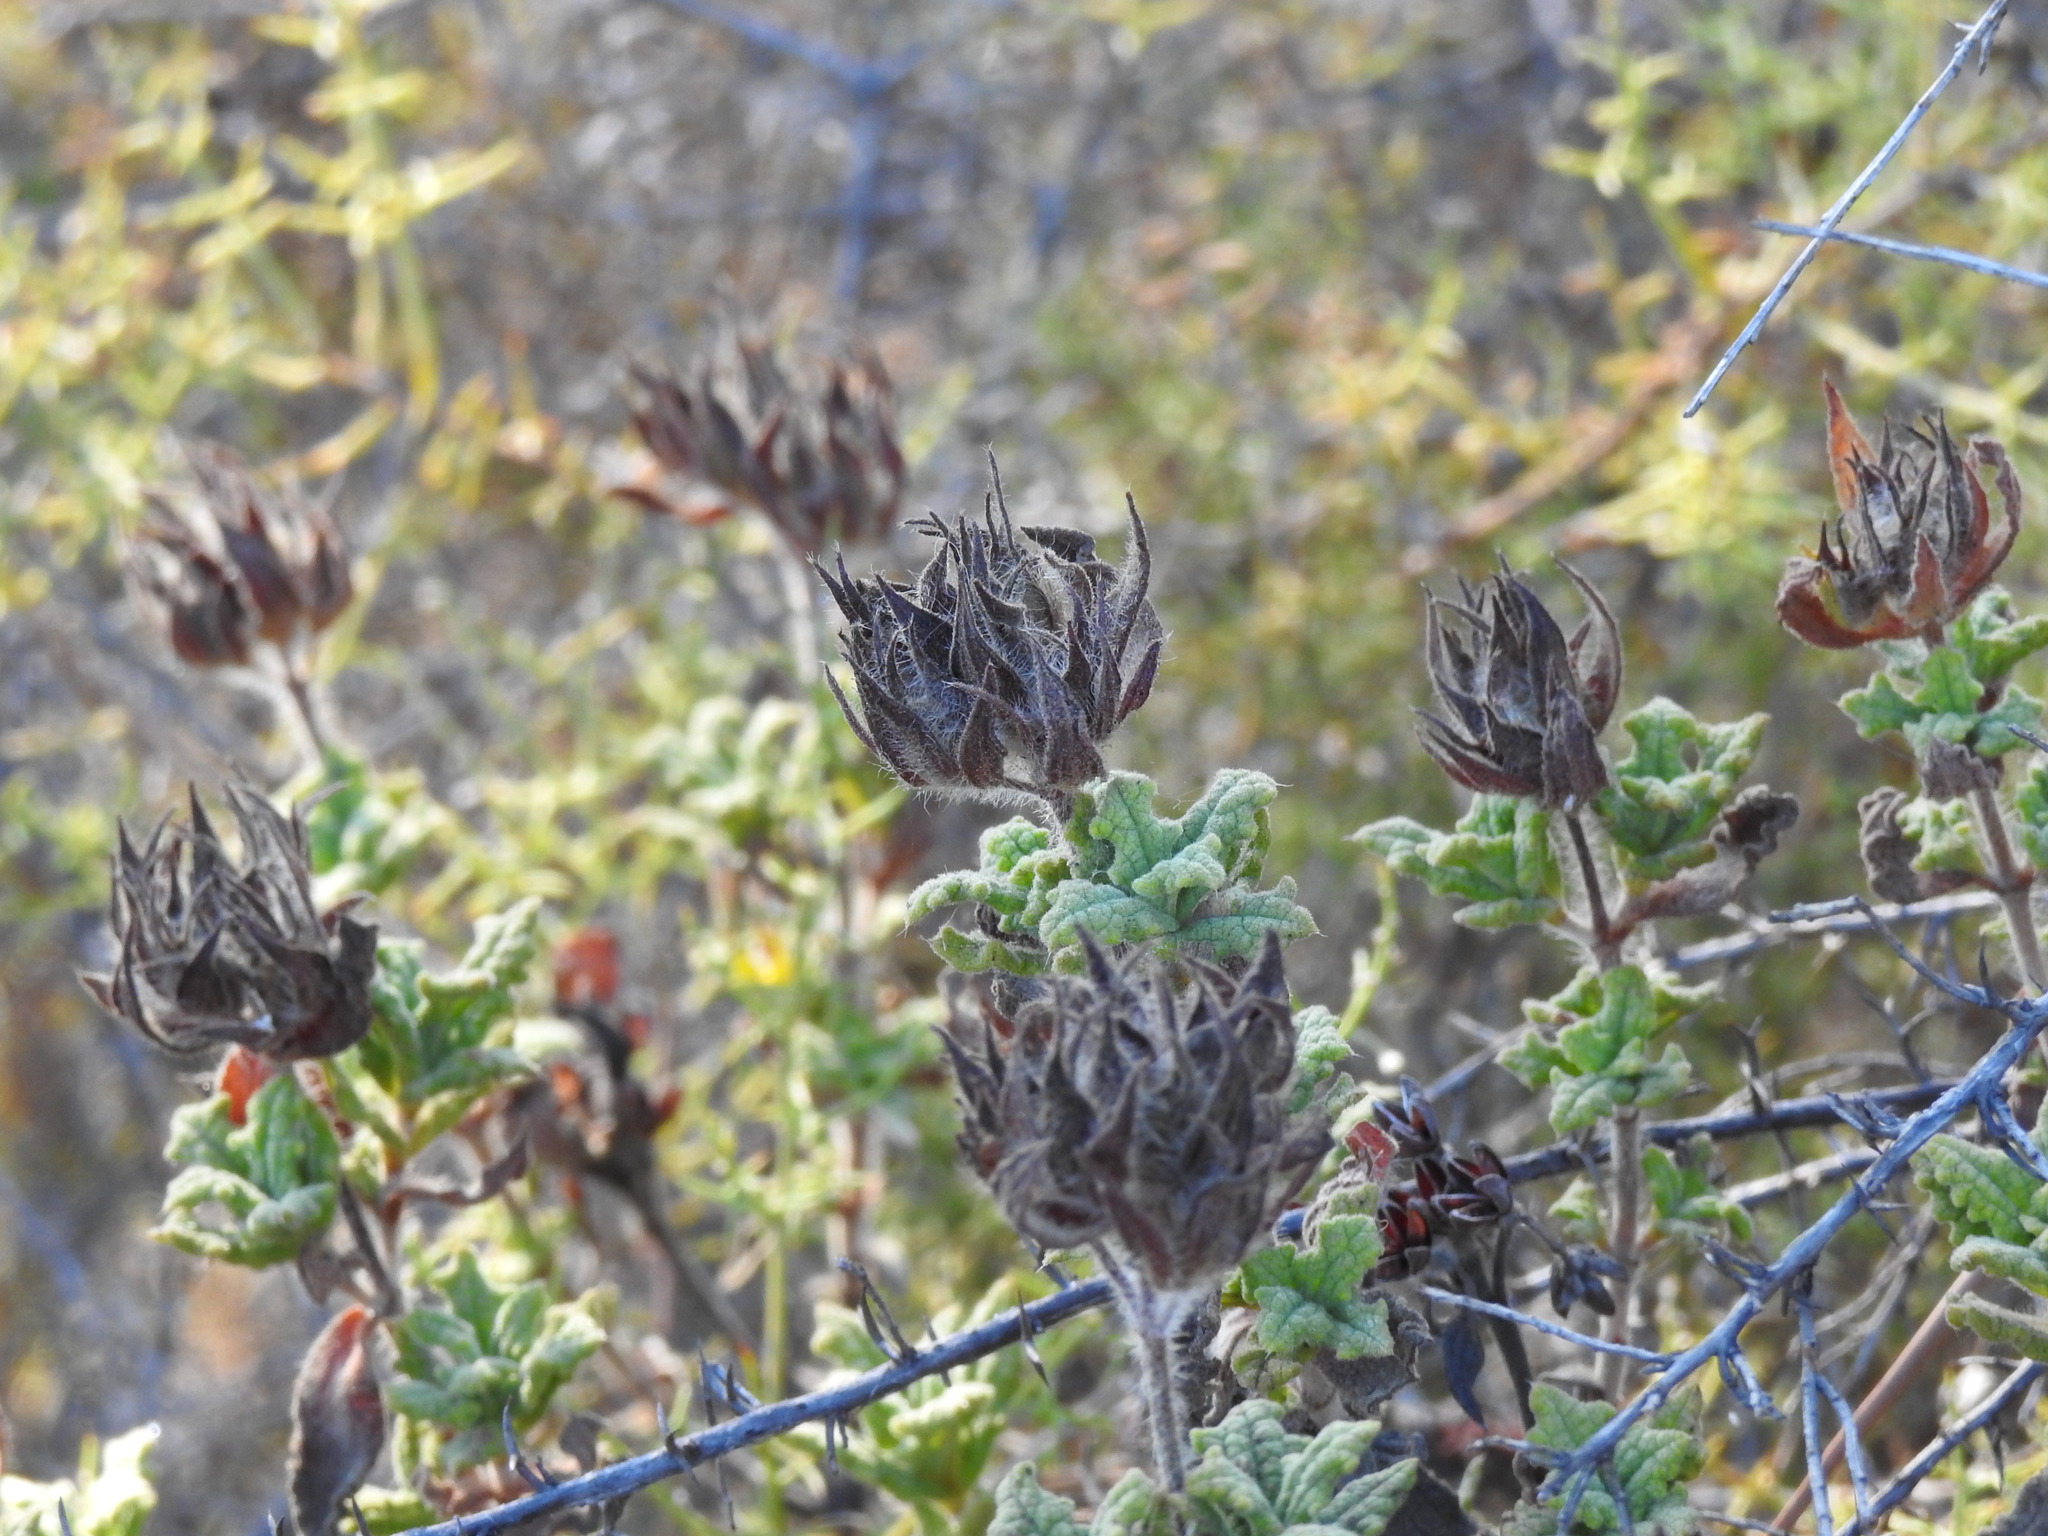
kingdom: Plantae
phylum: Tracheophyta
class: Magnoliopsida
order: Malvales
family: Cistaceae
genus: Cistus
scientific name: Cistus crispus
